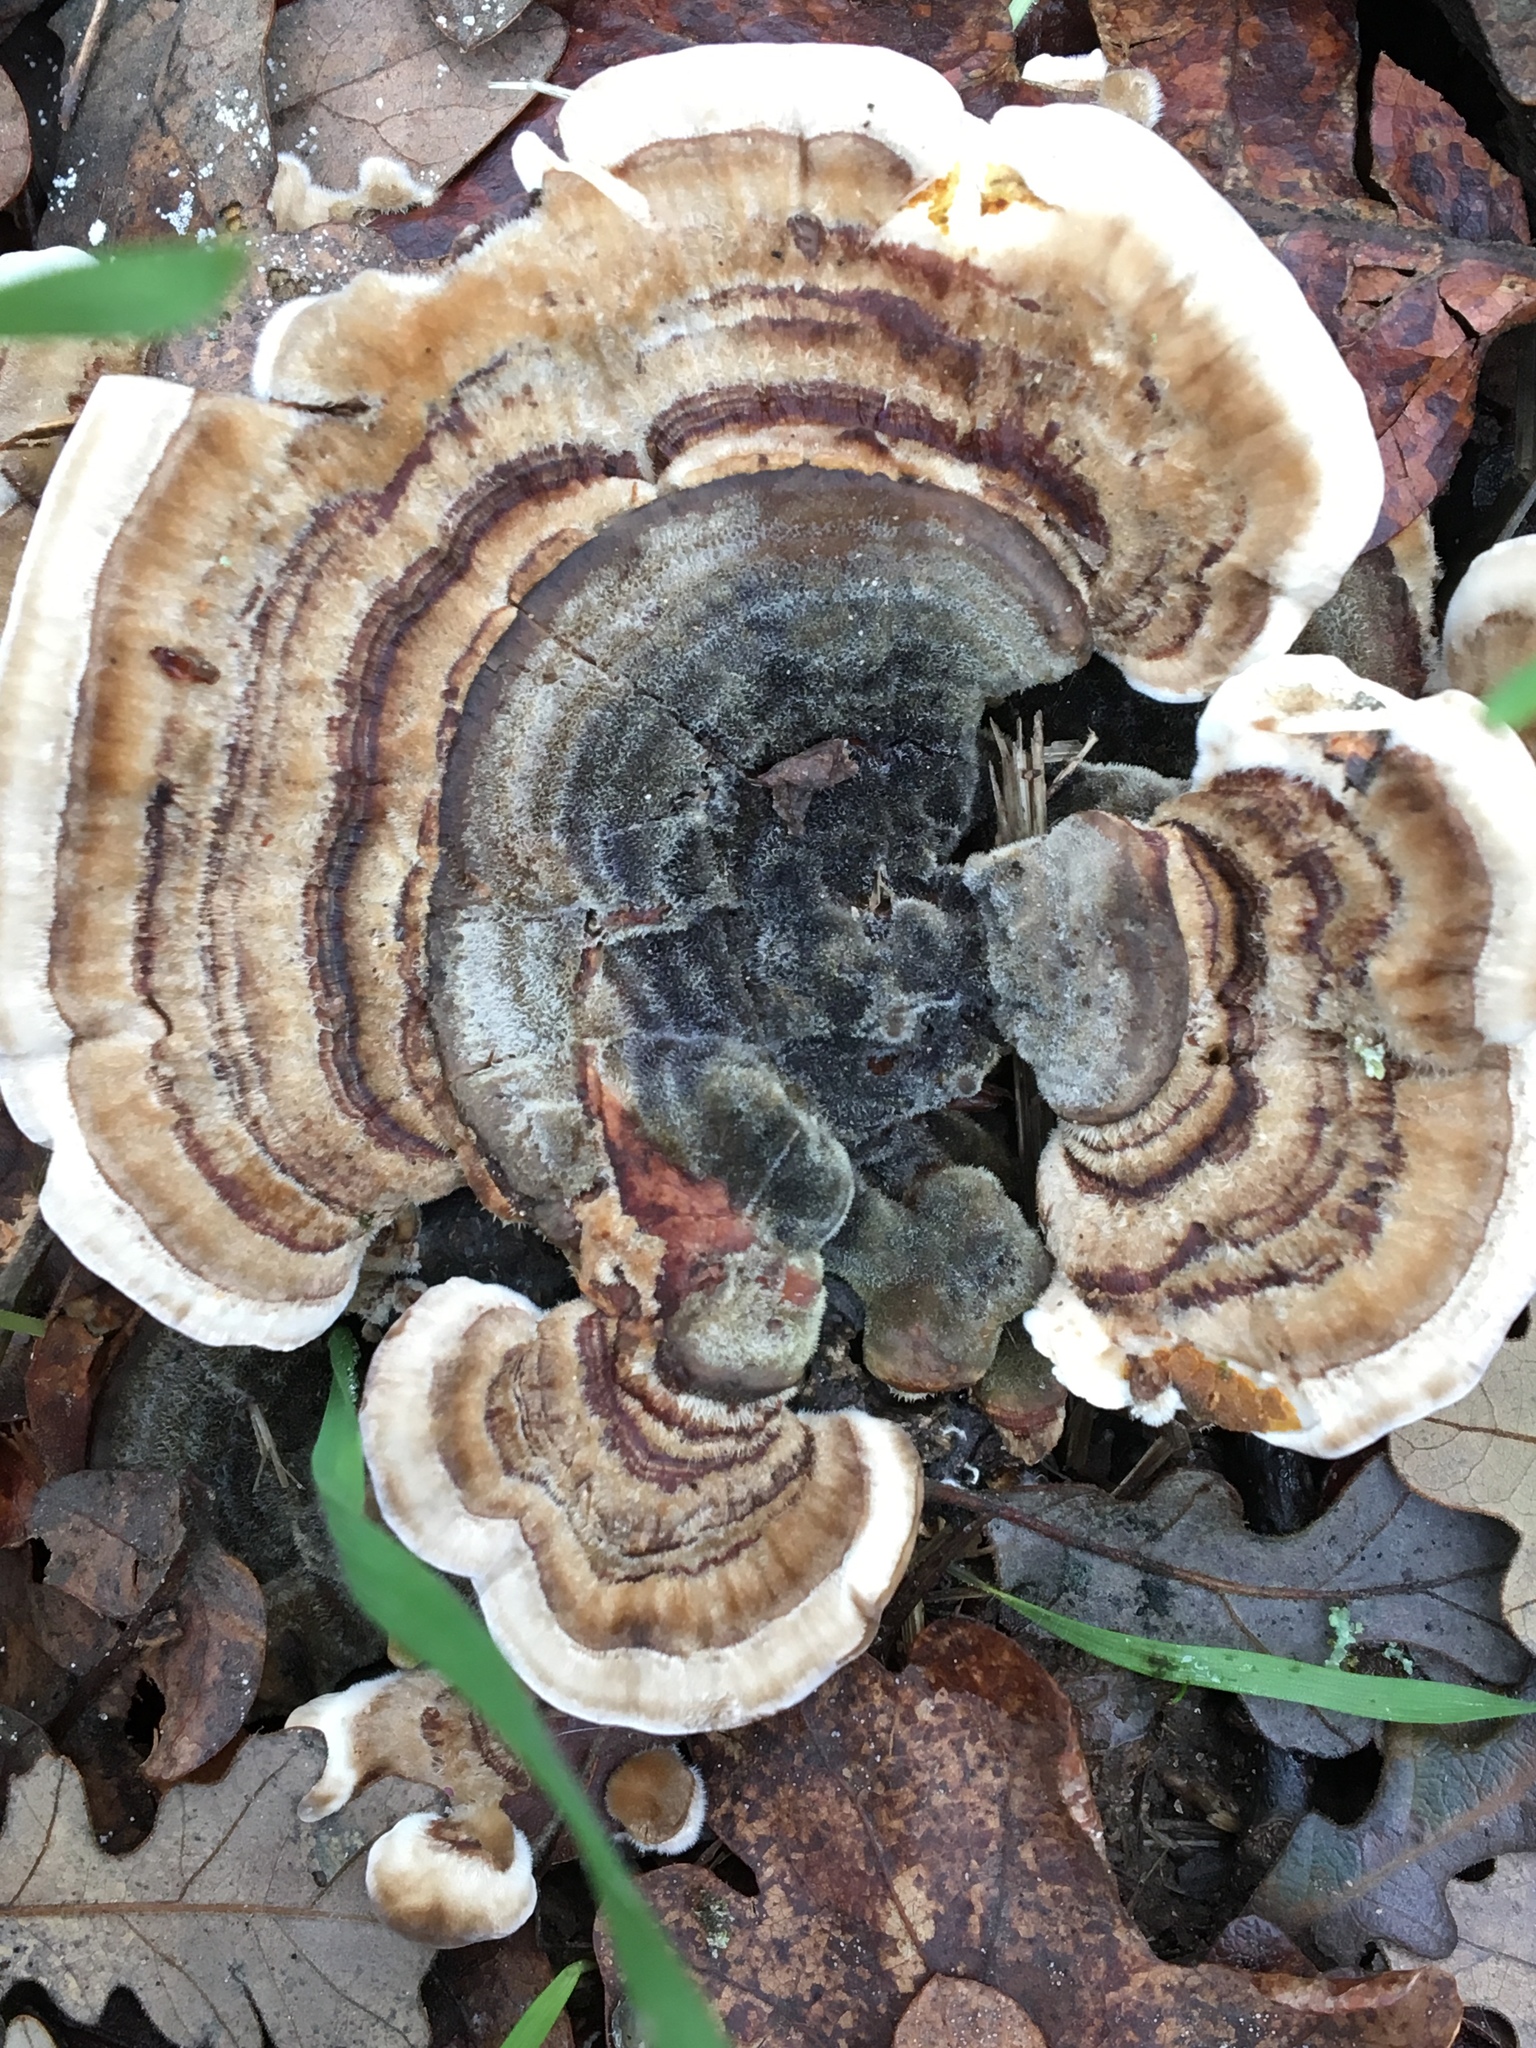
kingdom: Fungi
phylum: Basidiomycota
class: Agaricomycetes
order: Polyporales
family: Polyporaceae
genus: Trametes
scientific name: Trametes versicolor
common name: Turkeytail
